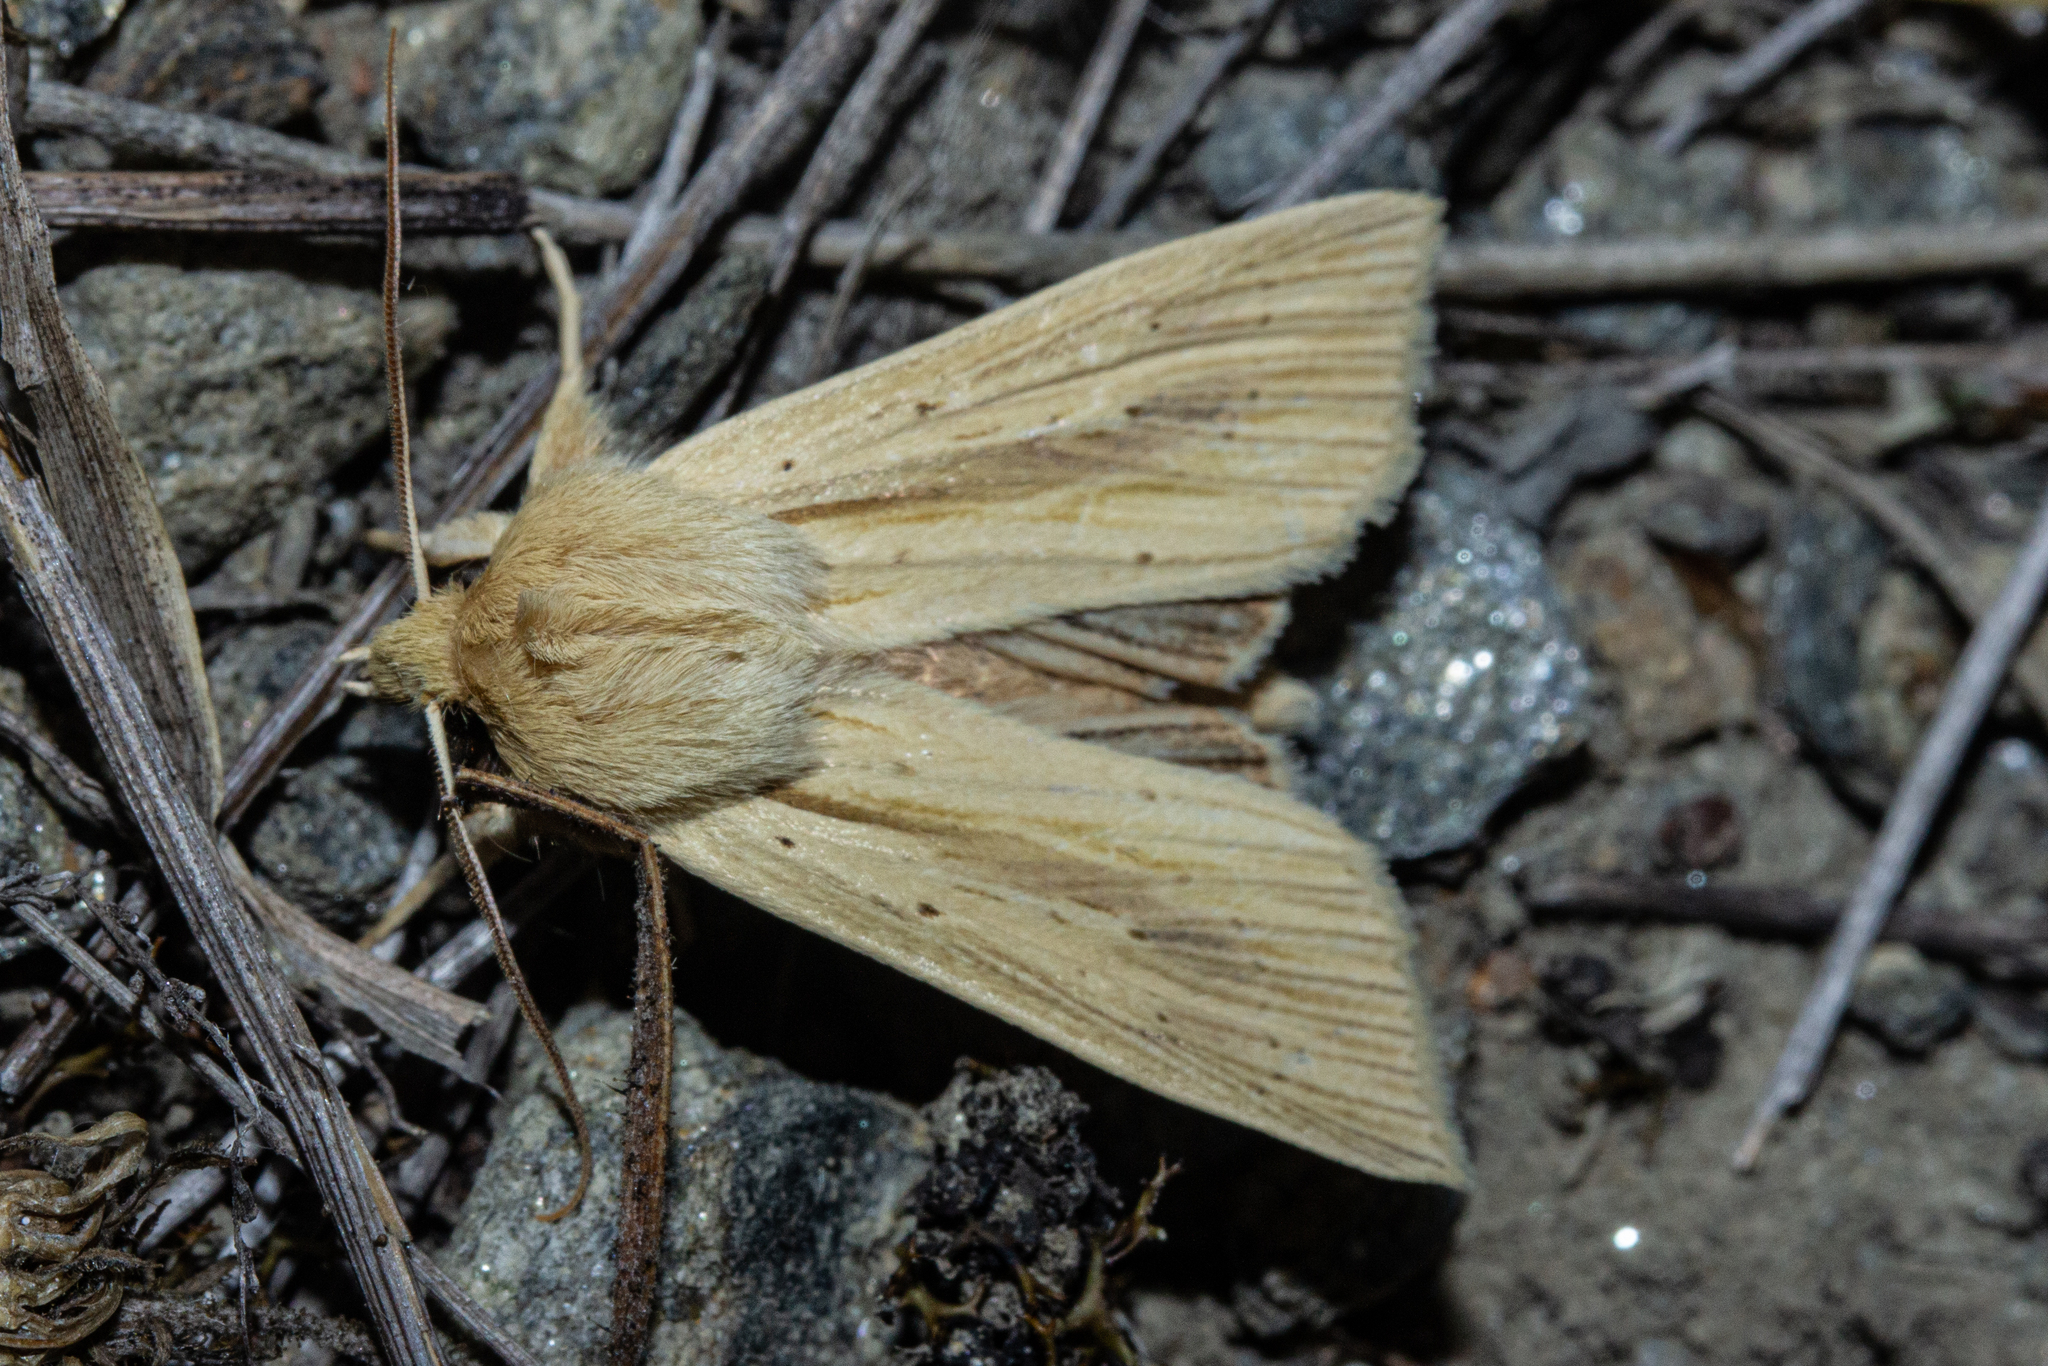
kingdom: Animalia
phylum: Arthropoda
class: Insecta
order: Lepidoptera
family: Noctuidae
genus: Ichneutica
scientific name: Ichneutica semivittata
